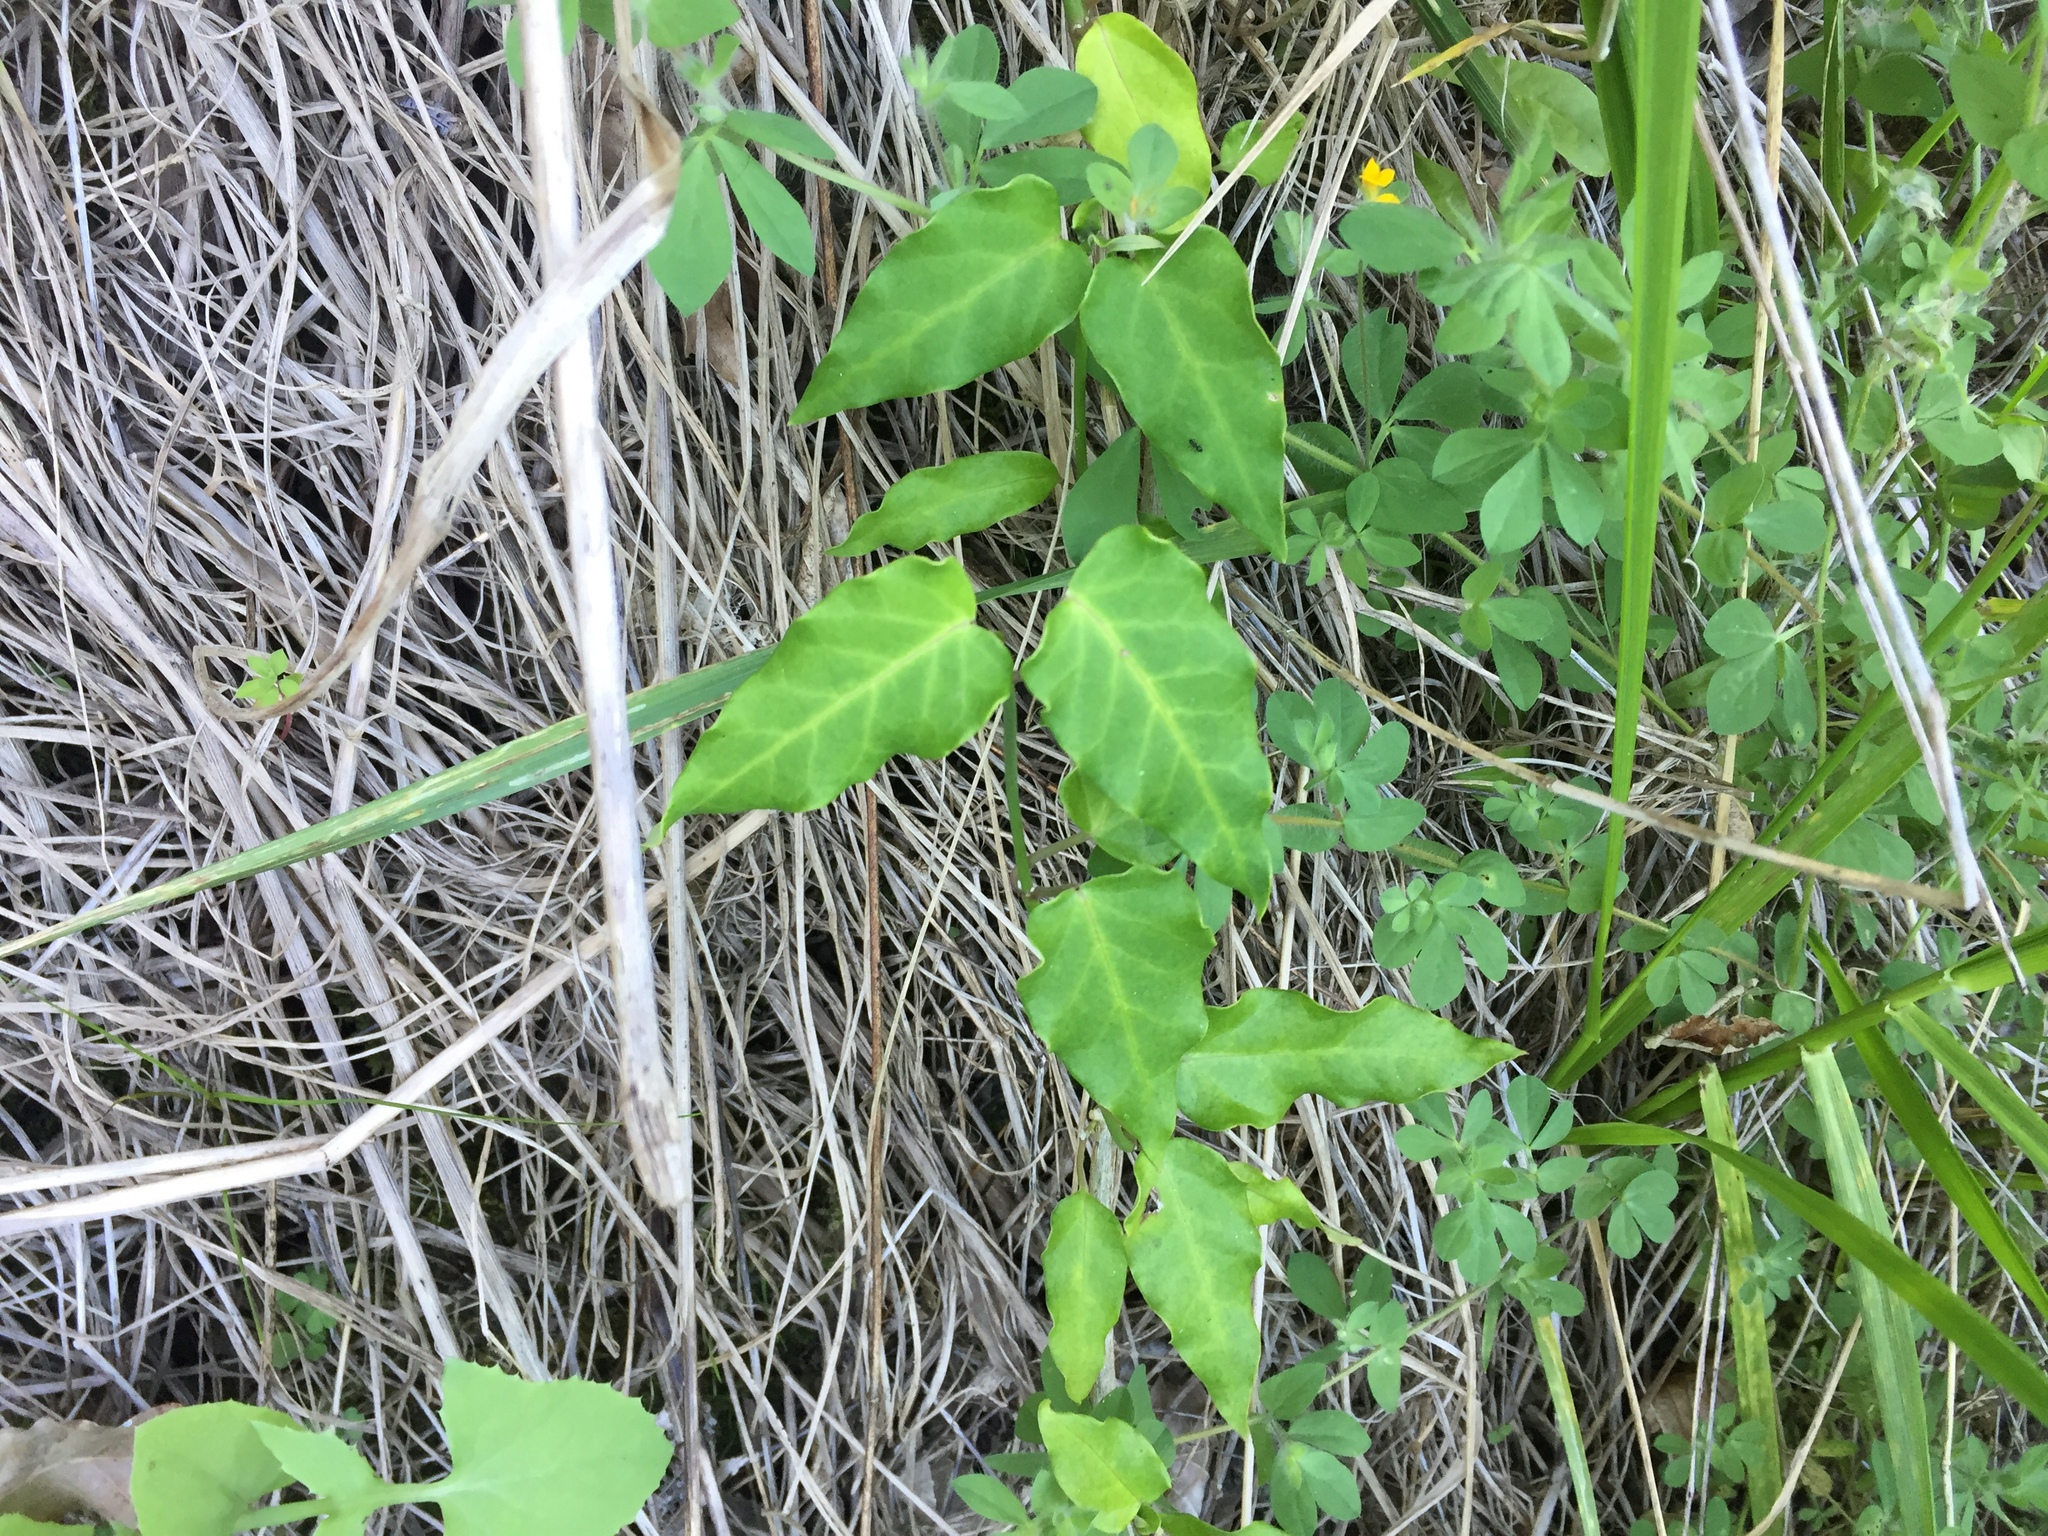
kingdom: Plantae
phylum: Tracheophyta
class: Magnoliopsida
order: Gentianales
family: Apocynaceae
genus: Araujia
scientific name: Araujia sericifera
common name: White bladderflower
